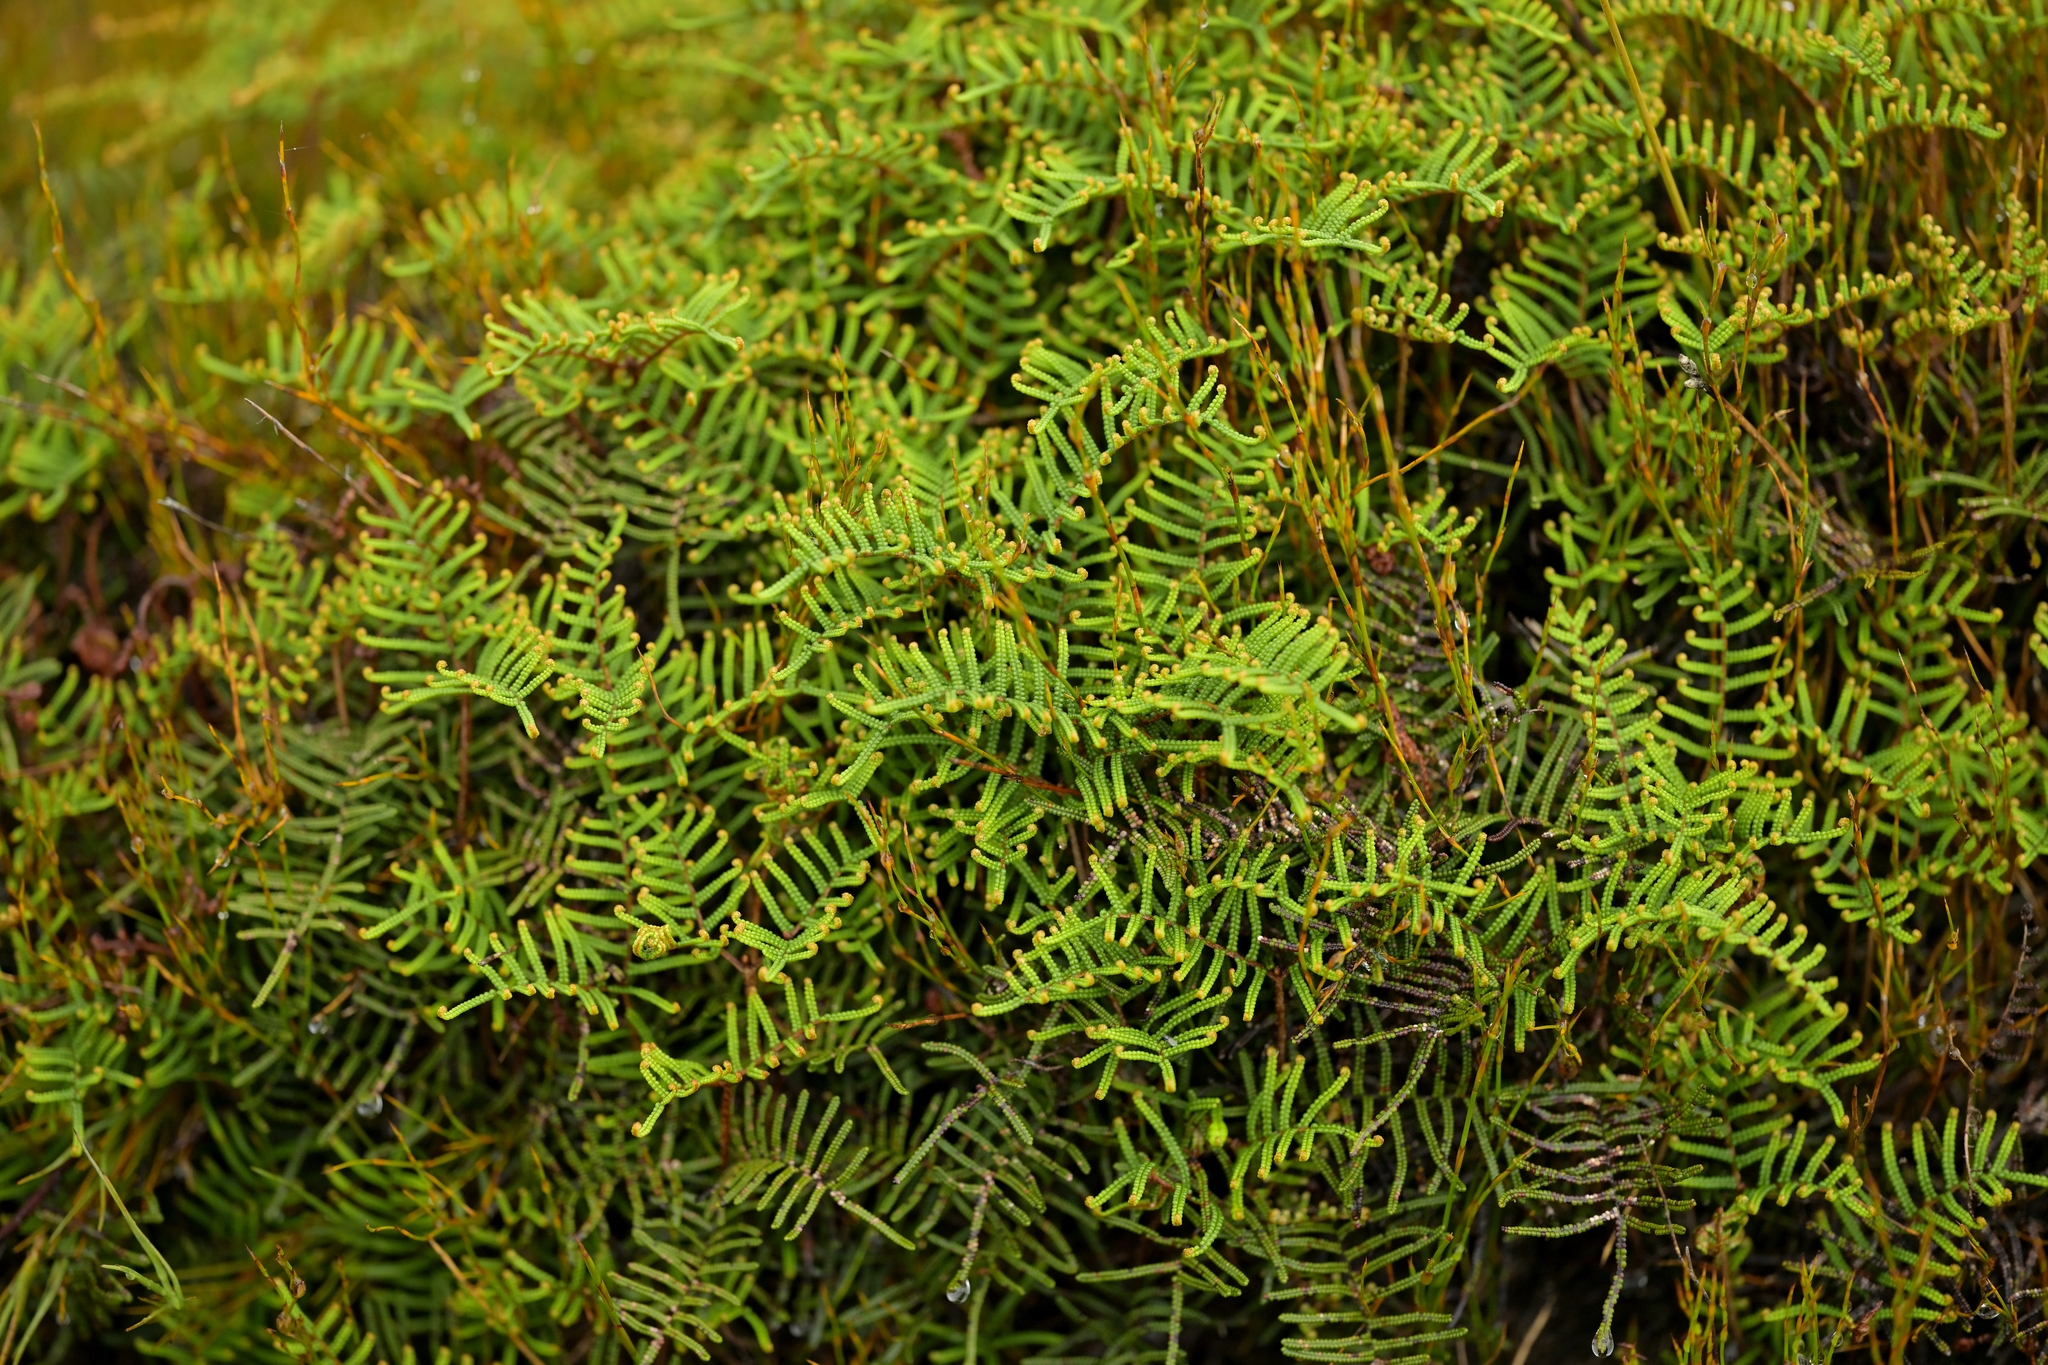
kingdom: Plantae
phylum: Tracheophyta
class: Polypodiopsida
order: Gleicheniales
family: Gleicheniaceae
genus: Gleichenia
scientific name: Gleichenia alpina
